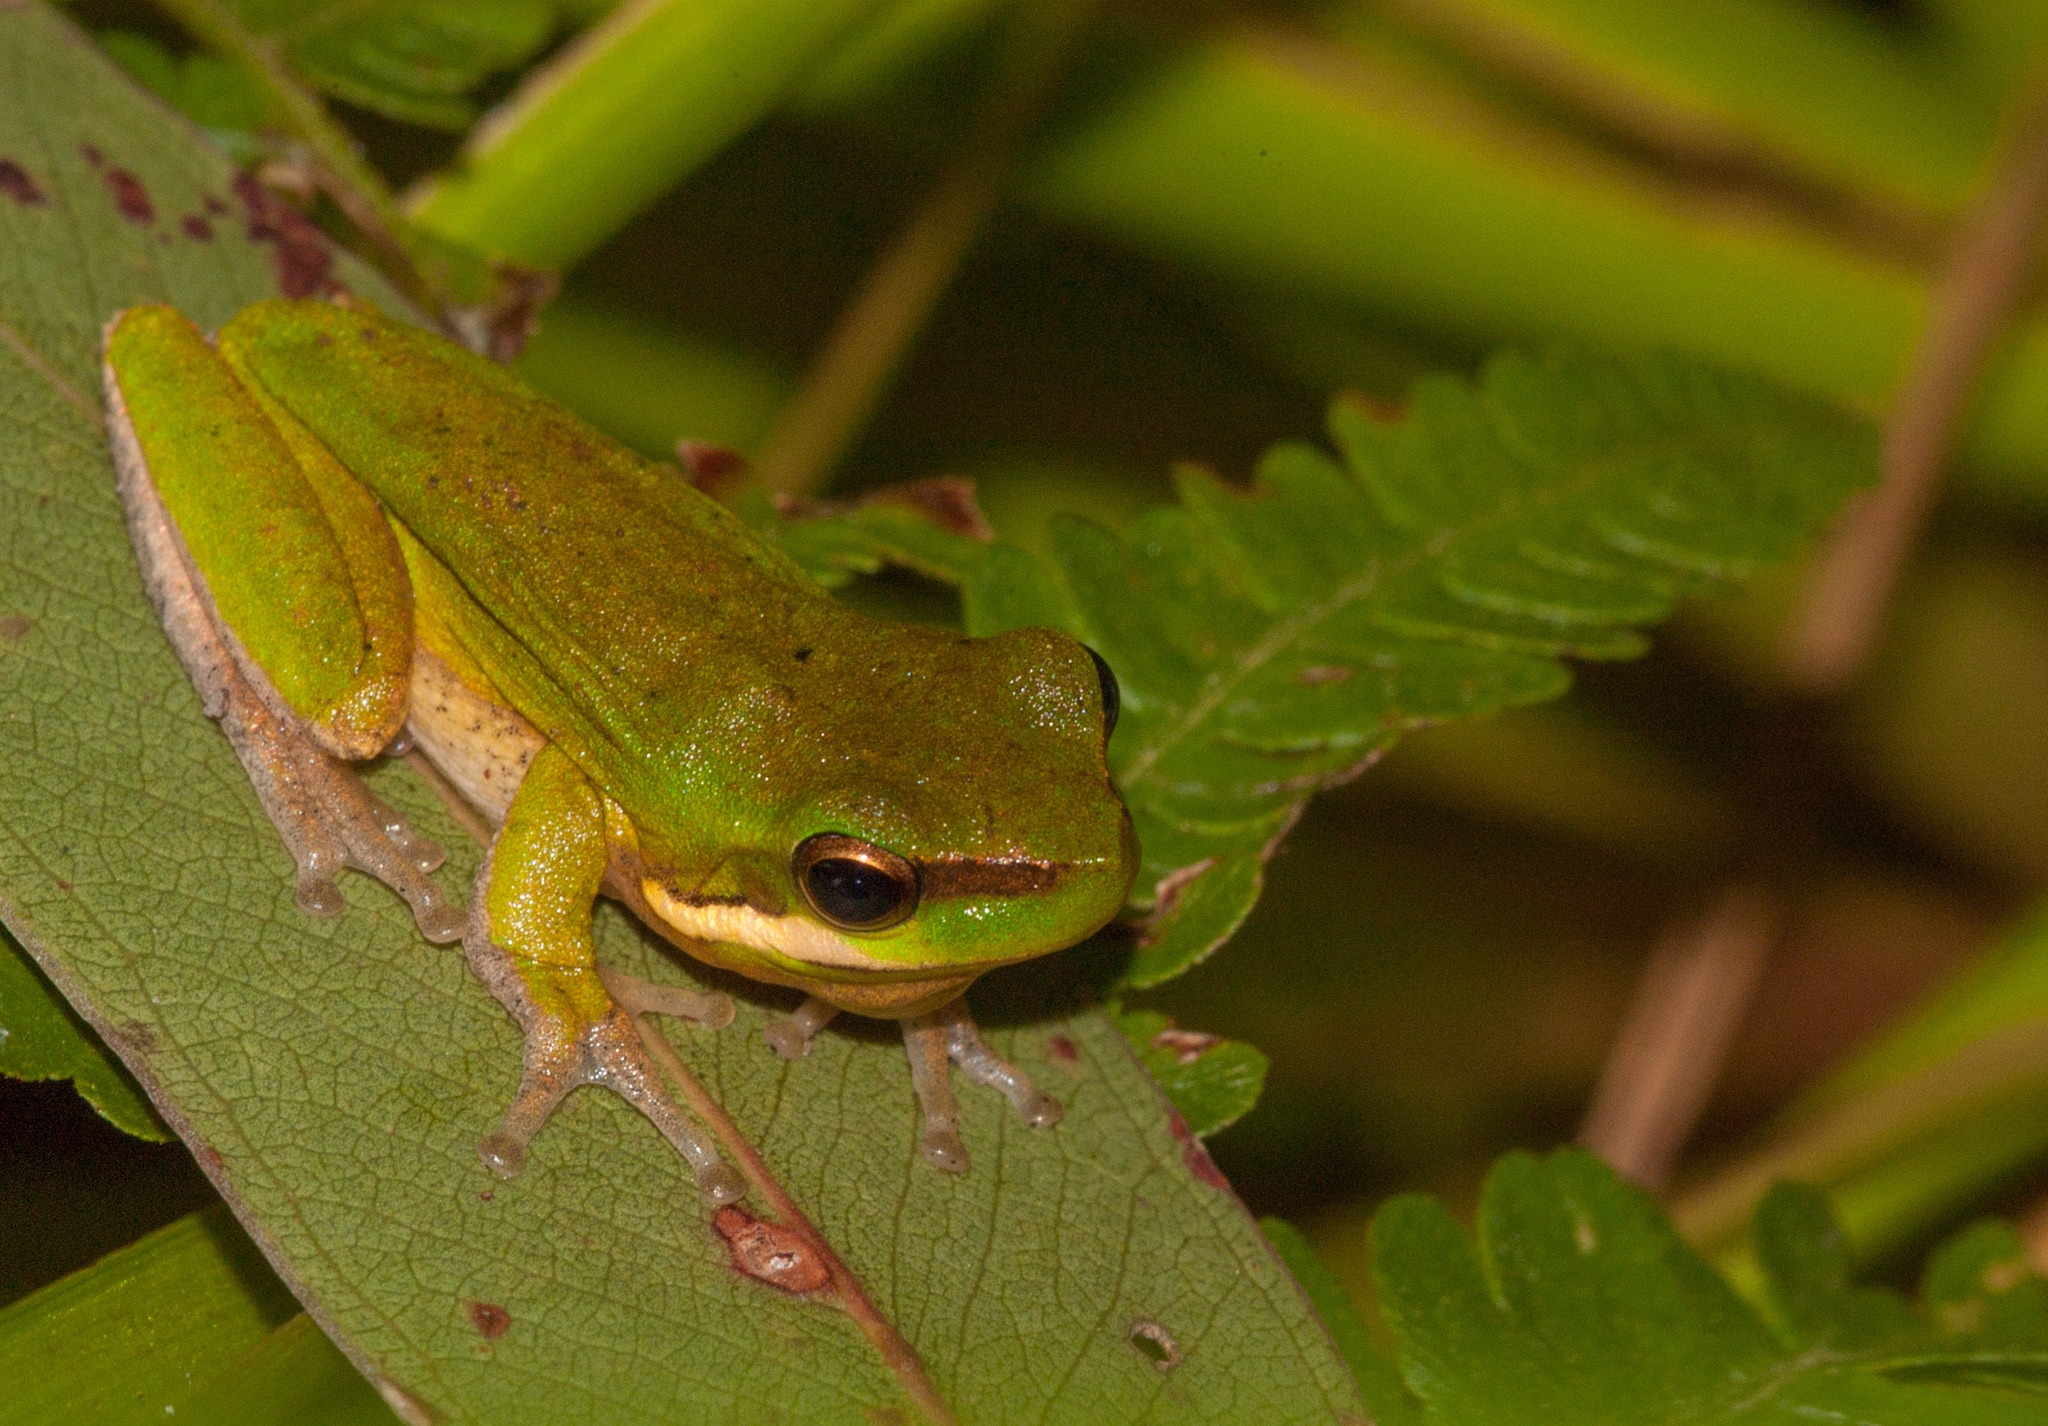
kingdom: Animalia
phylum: Chordata
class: Amphibia
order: Anura
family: Pelodryadidae
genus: Litoria
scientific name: Litoria fallax
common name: Eastern dwarf treefrog
